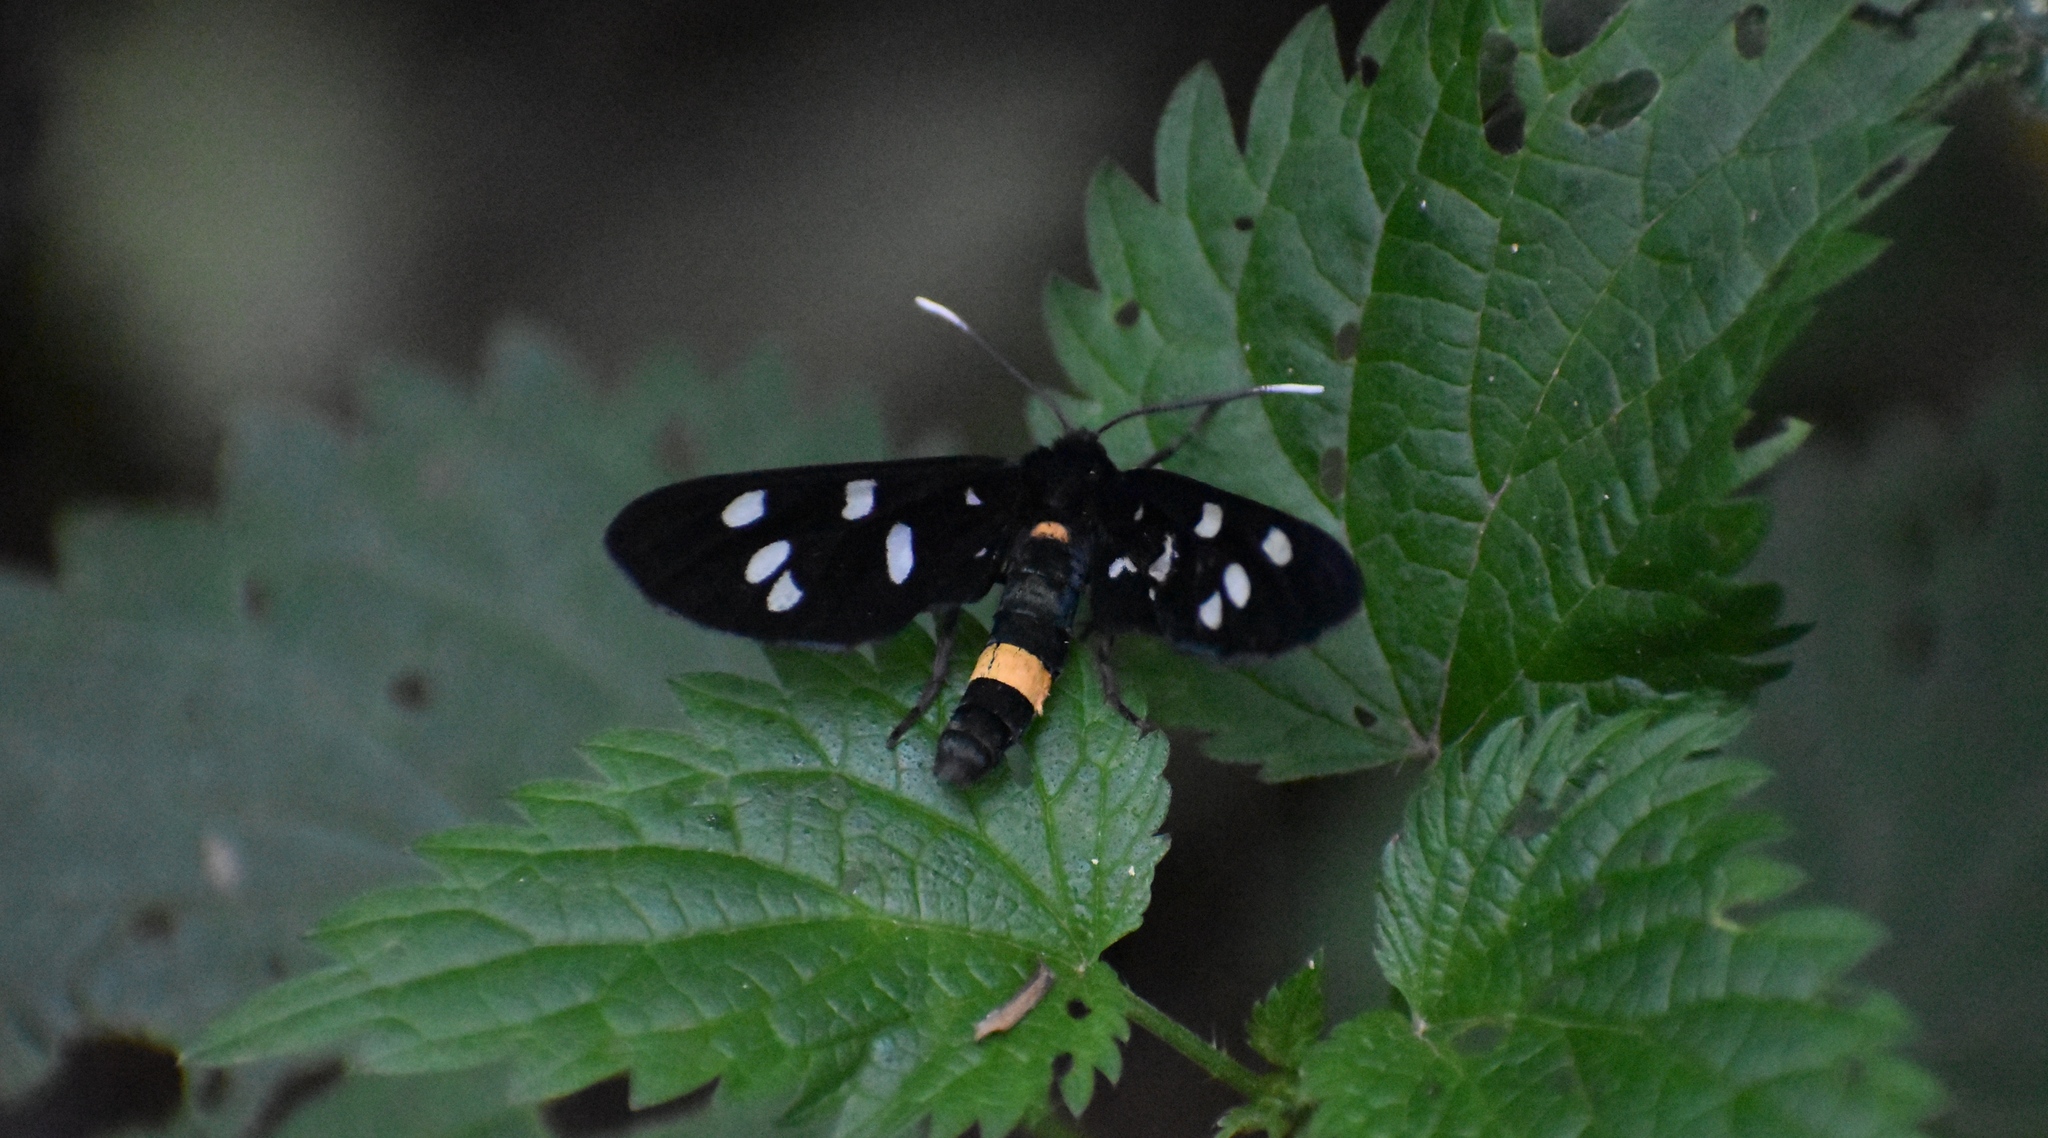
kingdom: Animalia
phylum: Arthropoda
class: Insecta
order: Lepidoptera
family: Erebidae
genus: Amata
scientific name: Amata phegea
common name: Nine-spotted
